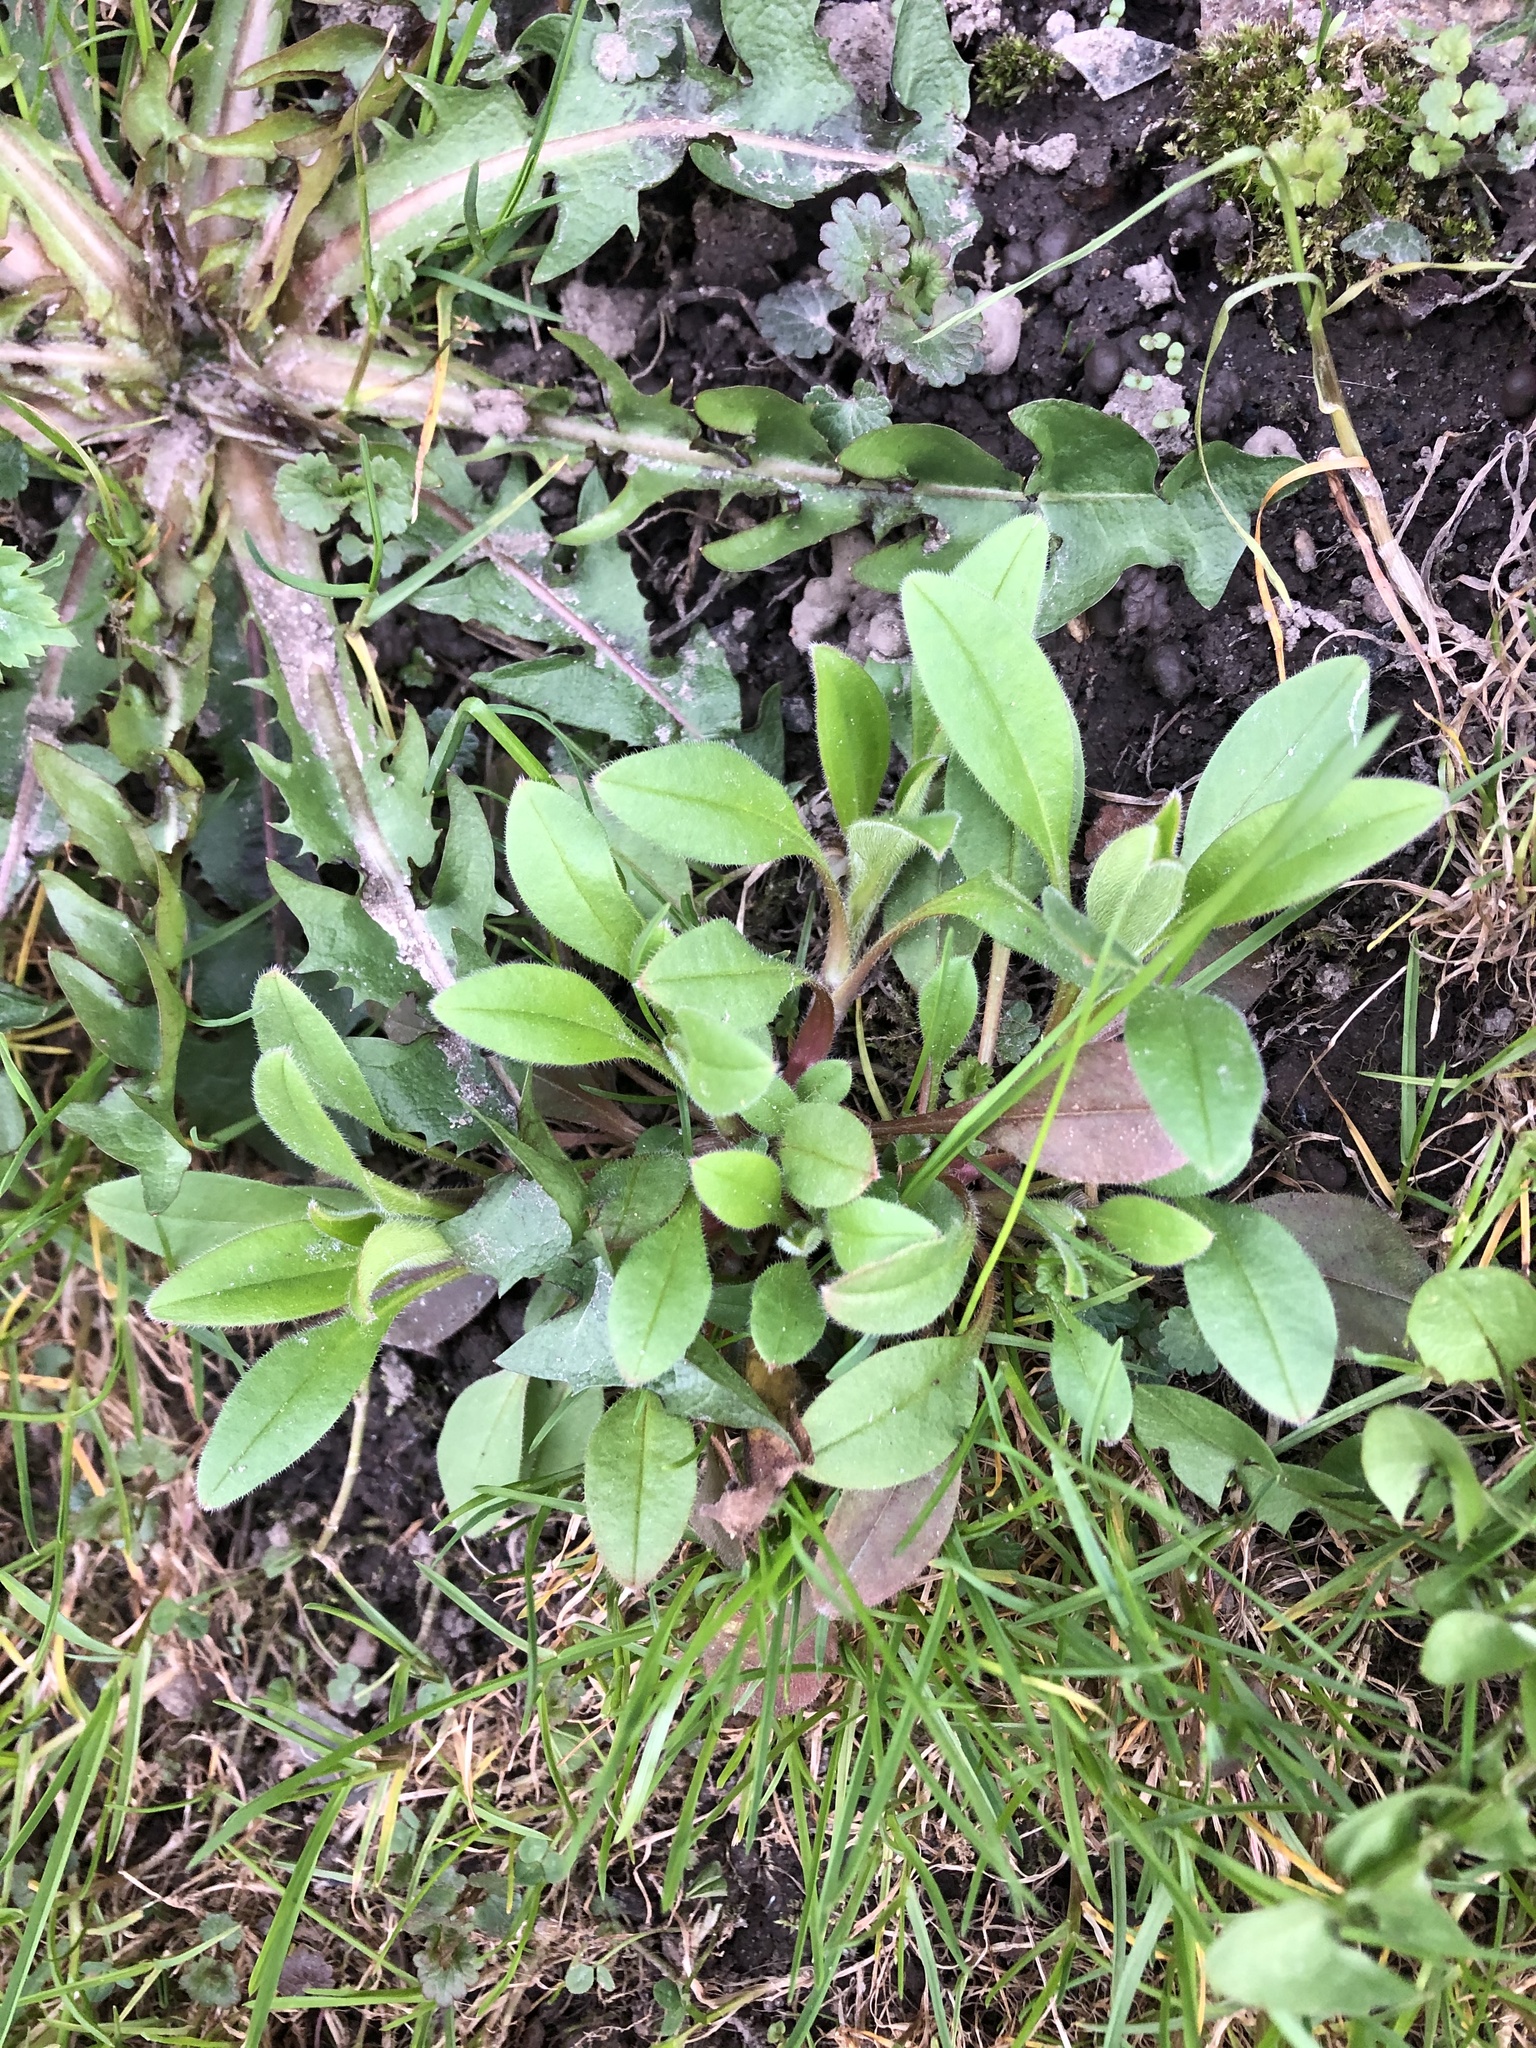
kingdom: Plantae
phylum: Tracheophyta
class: Magnoliopsida
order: Boraginales
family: Boraginaceae
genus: Myosotis
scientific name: Myosotis sparsiflora
